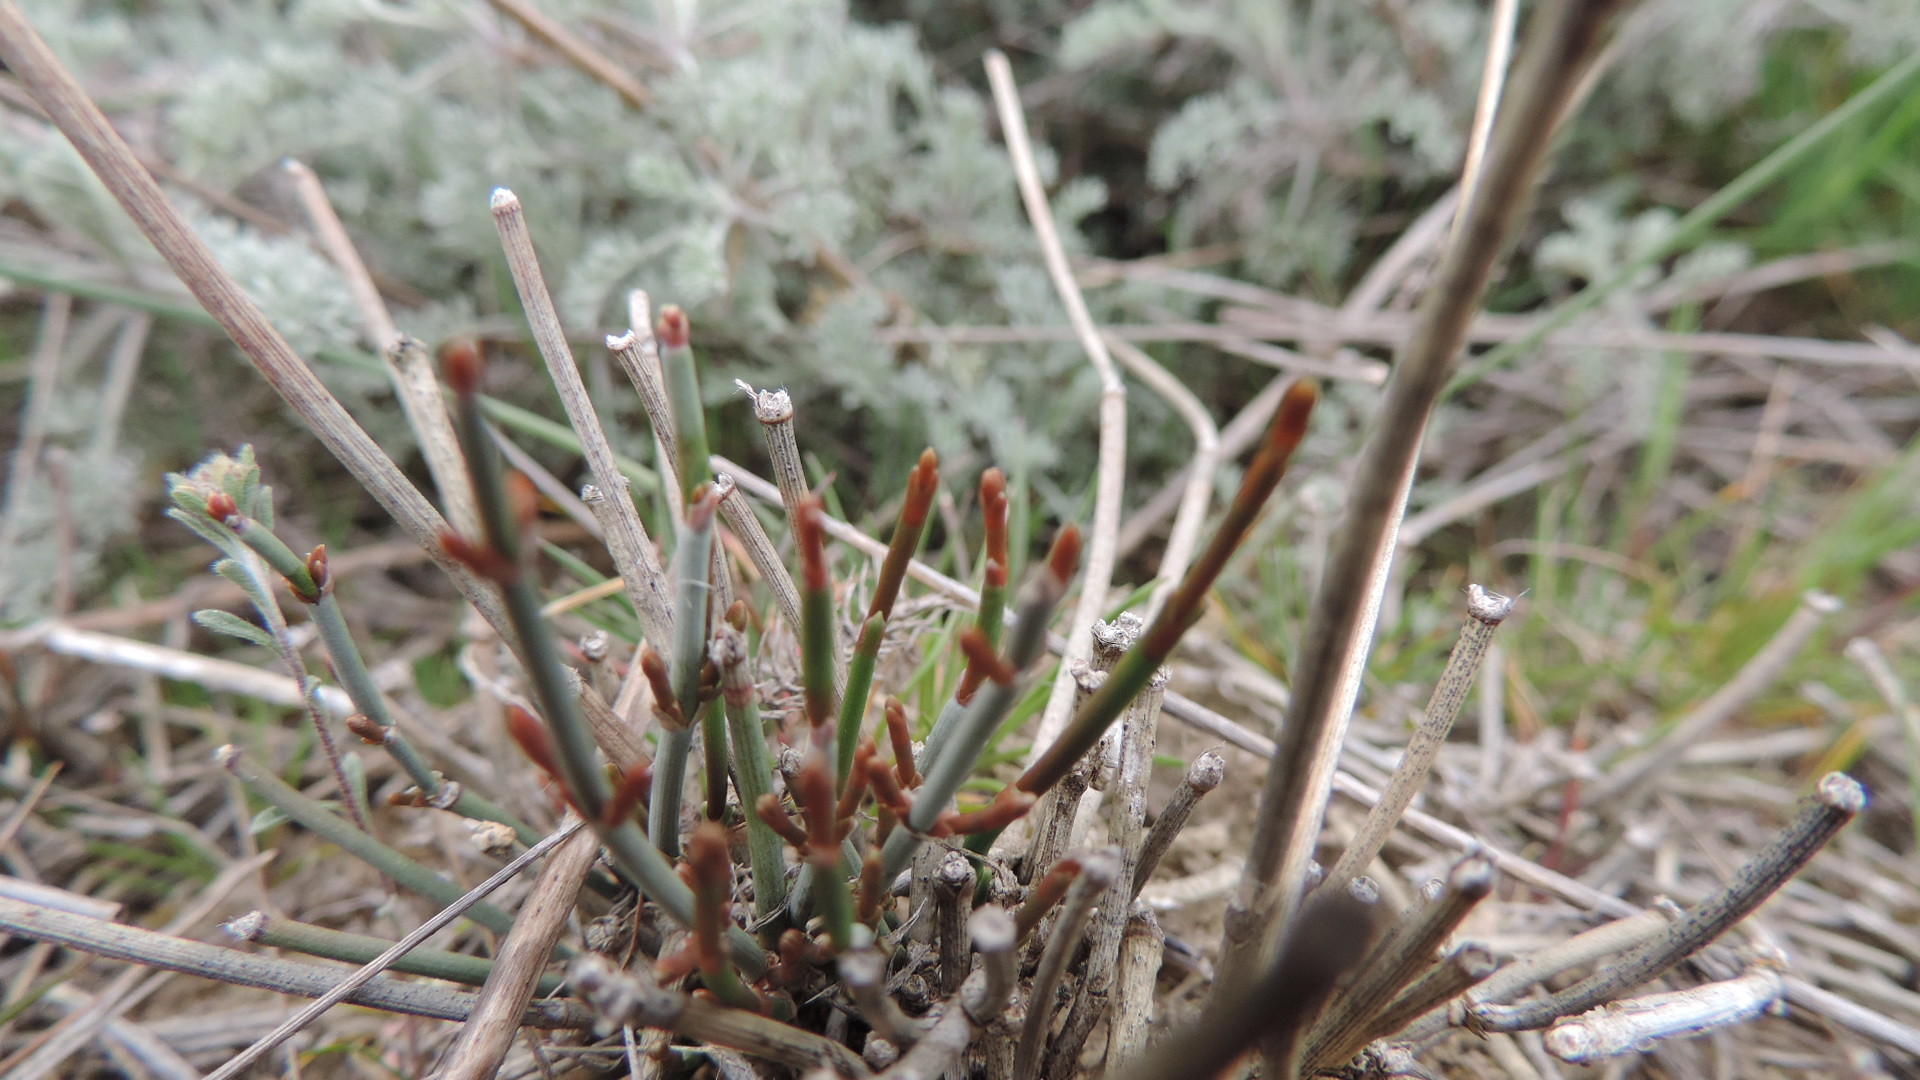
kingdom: Plantae
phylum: Tracheophyta
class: Gnetopsida
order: Ephedrales
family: Ephedraceae
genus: Ephedra
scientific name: Ephedra distachya
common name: Sea grape
